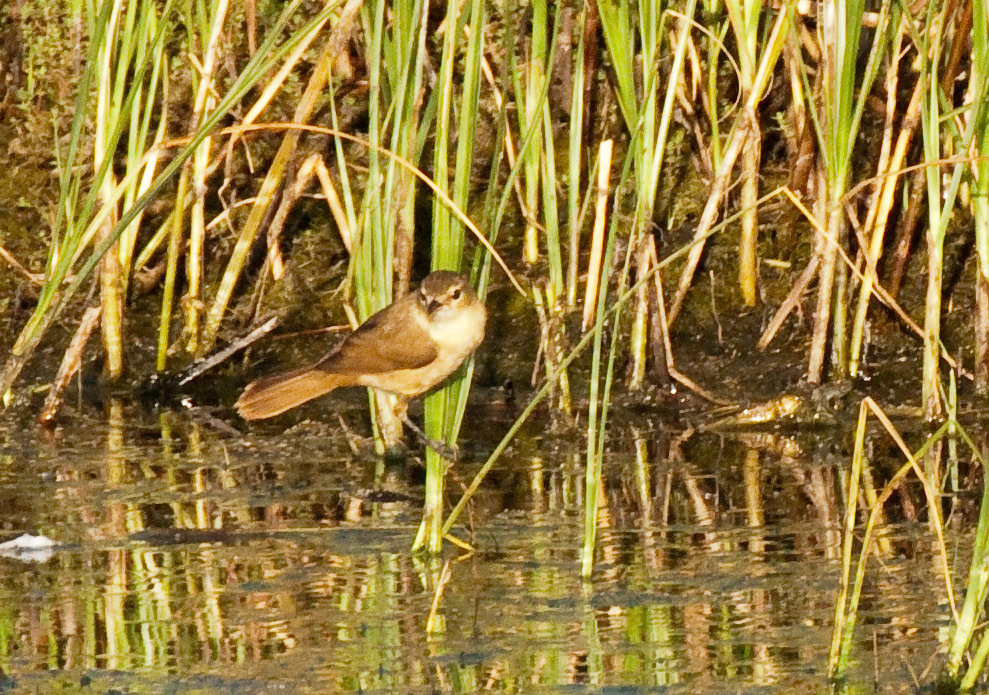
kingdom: Animalia
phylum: Chordata
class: Aves
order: Passeriformes
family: Acrocephalidae
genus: Acrocephalus
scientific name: Acrocephalus australis
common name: Australian reed warbler
